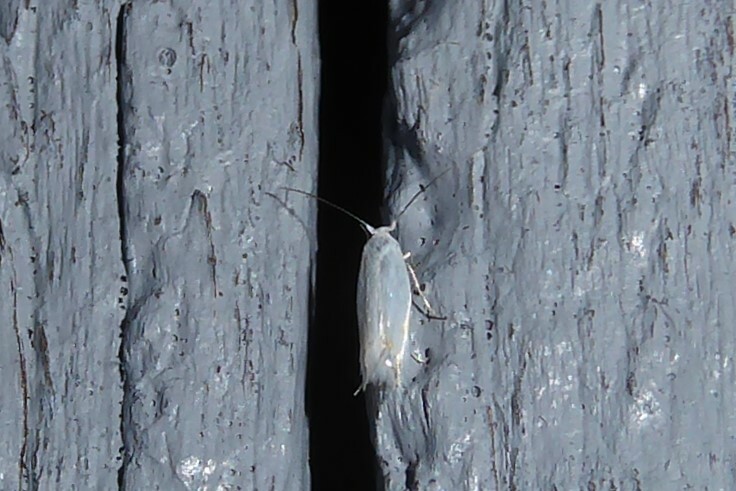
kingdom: Animalia
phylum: Arthropoda
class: Insecta
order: Lepidoptera
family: Lyonetiidae
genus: Leucoptera
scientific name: Leucoptera spartifoliella
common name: Scotch broom twig miner
